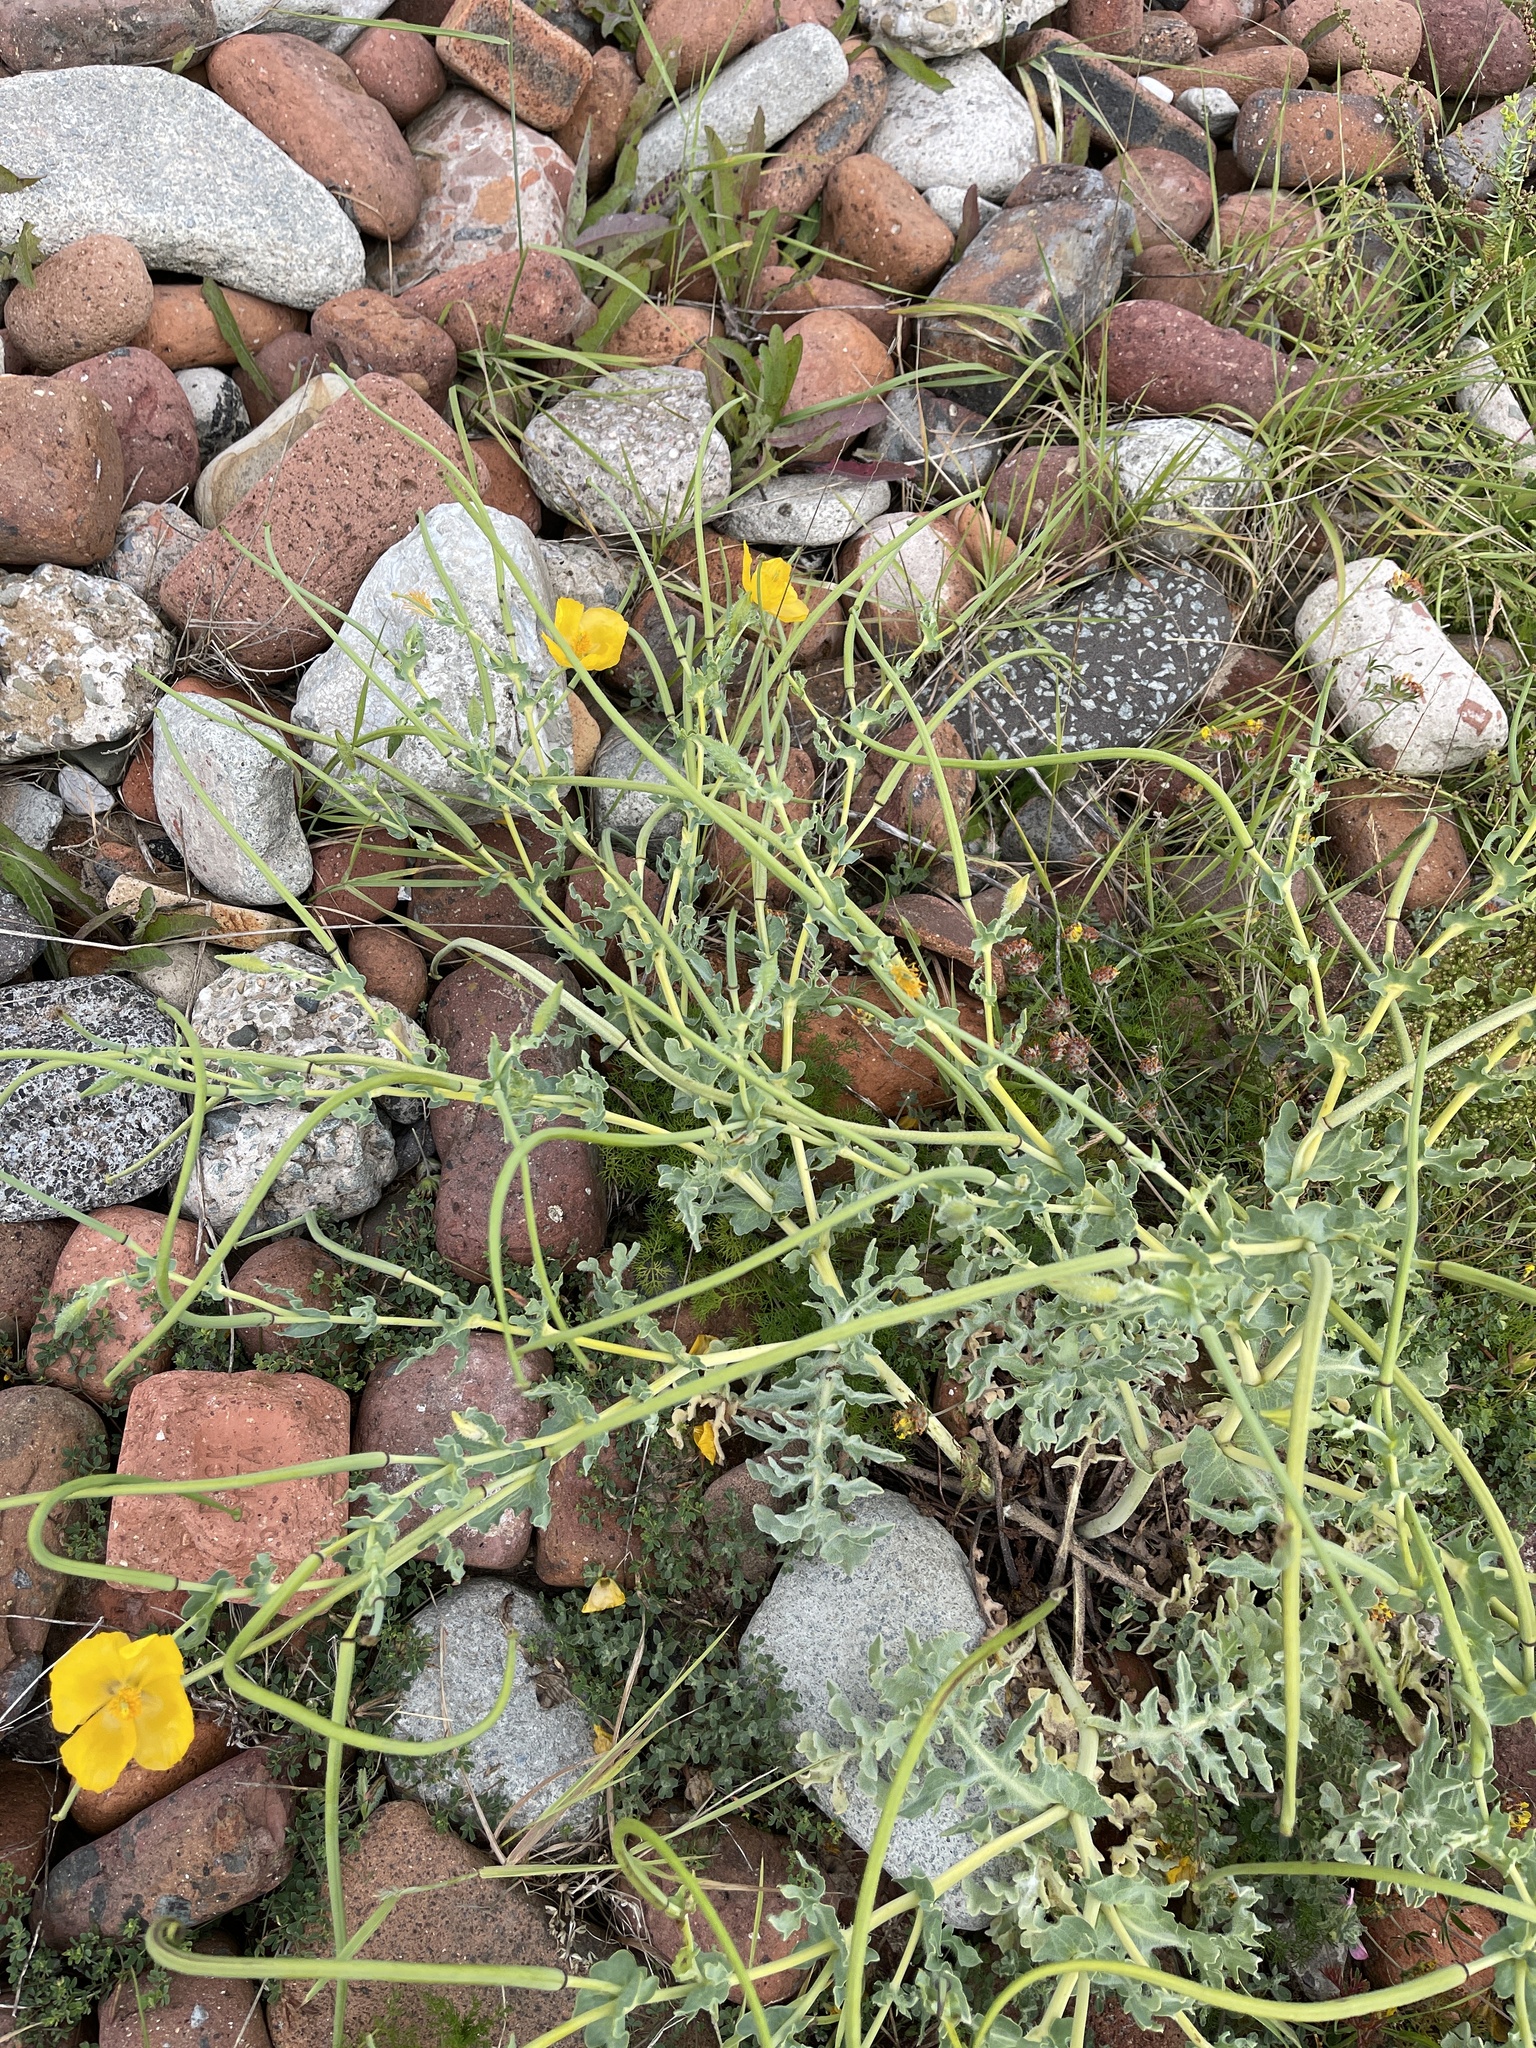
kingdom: Plantae
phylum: Tracheophyta
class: Magnoliopsida
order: Ranunculales
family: Papaveraceae
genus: Glaucium
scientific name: Glaucium flavum
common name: Yellow horned-poppy
